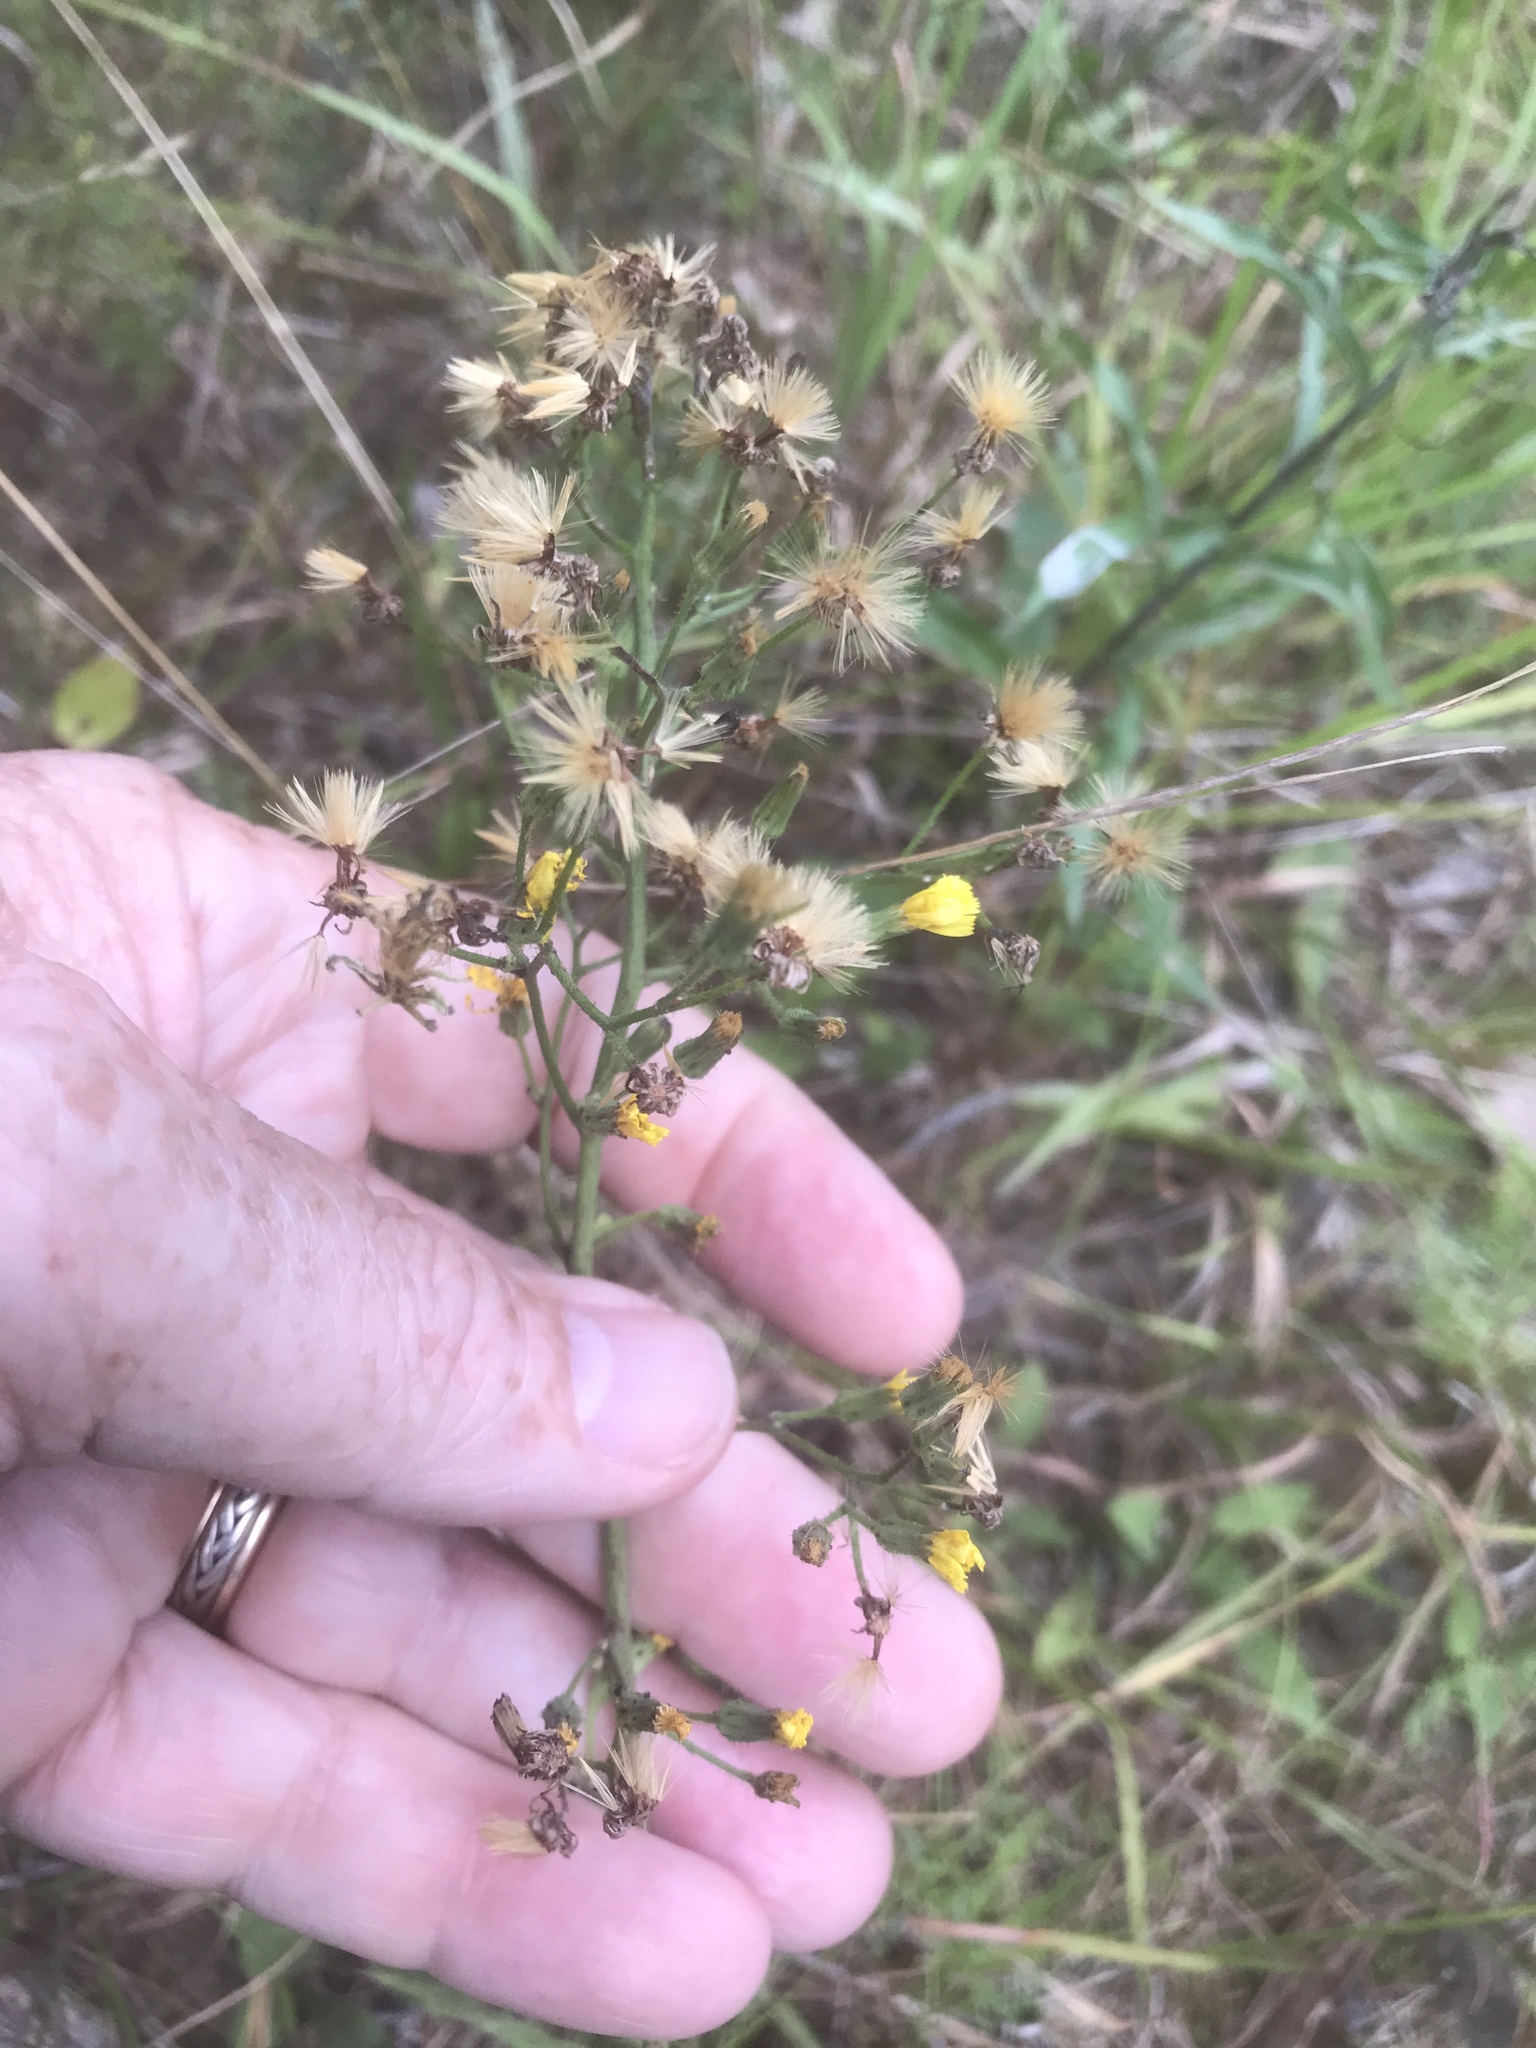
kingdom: Plantae
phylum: Tracheophyta
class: Magnoliopsida
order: Asterales
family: Asteraceae
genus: Hieracium
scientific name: Hieracium gronovii
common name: Beaked hawkweed
